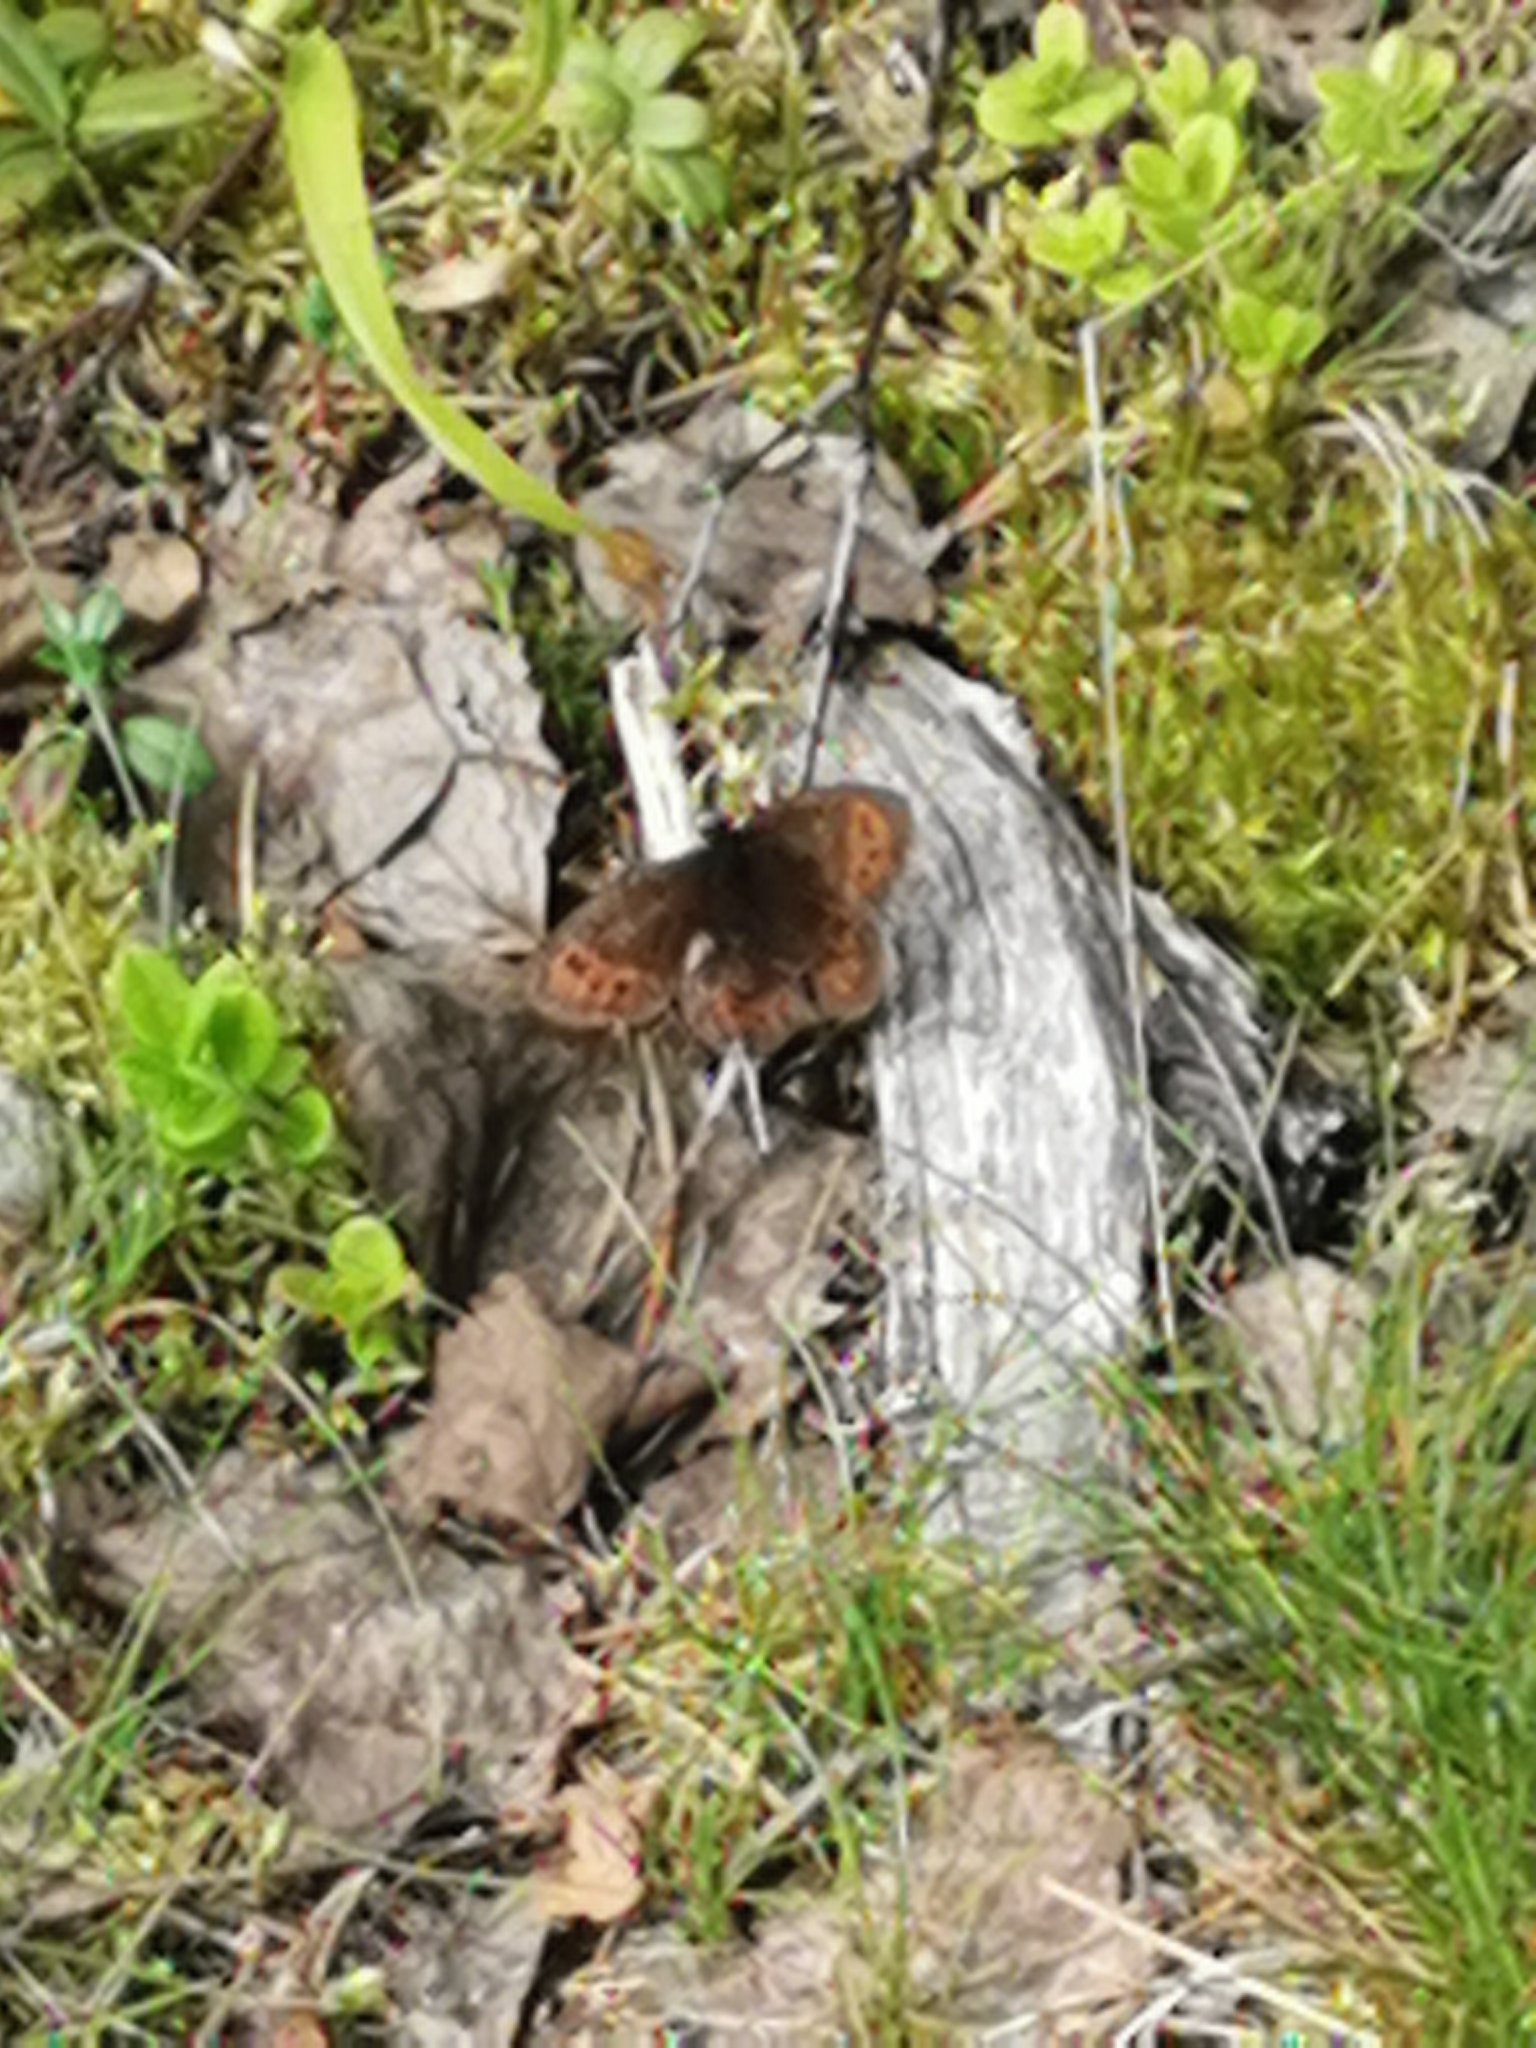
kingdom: Animalia
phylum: Arthropoda
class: Insecta
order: Lepidoptera
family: Nymphalidae
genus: Erebia
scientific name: Erebia ligea
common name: Arran brown
